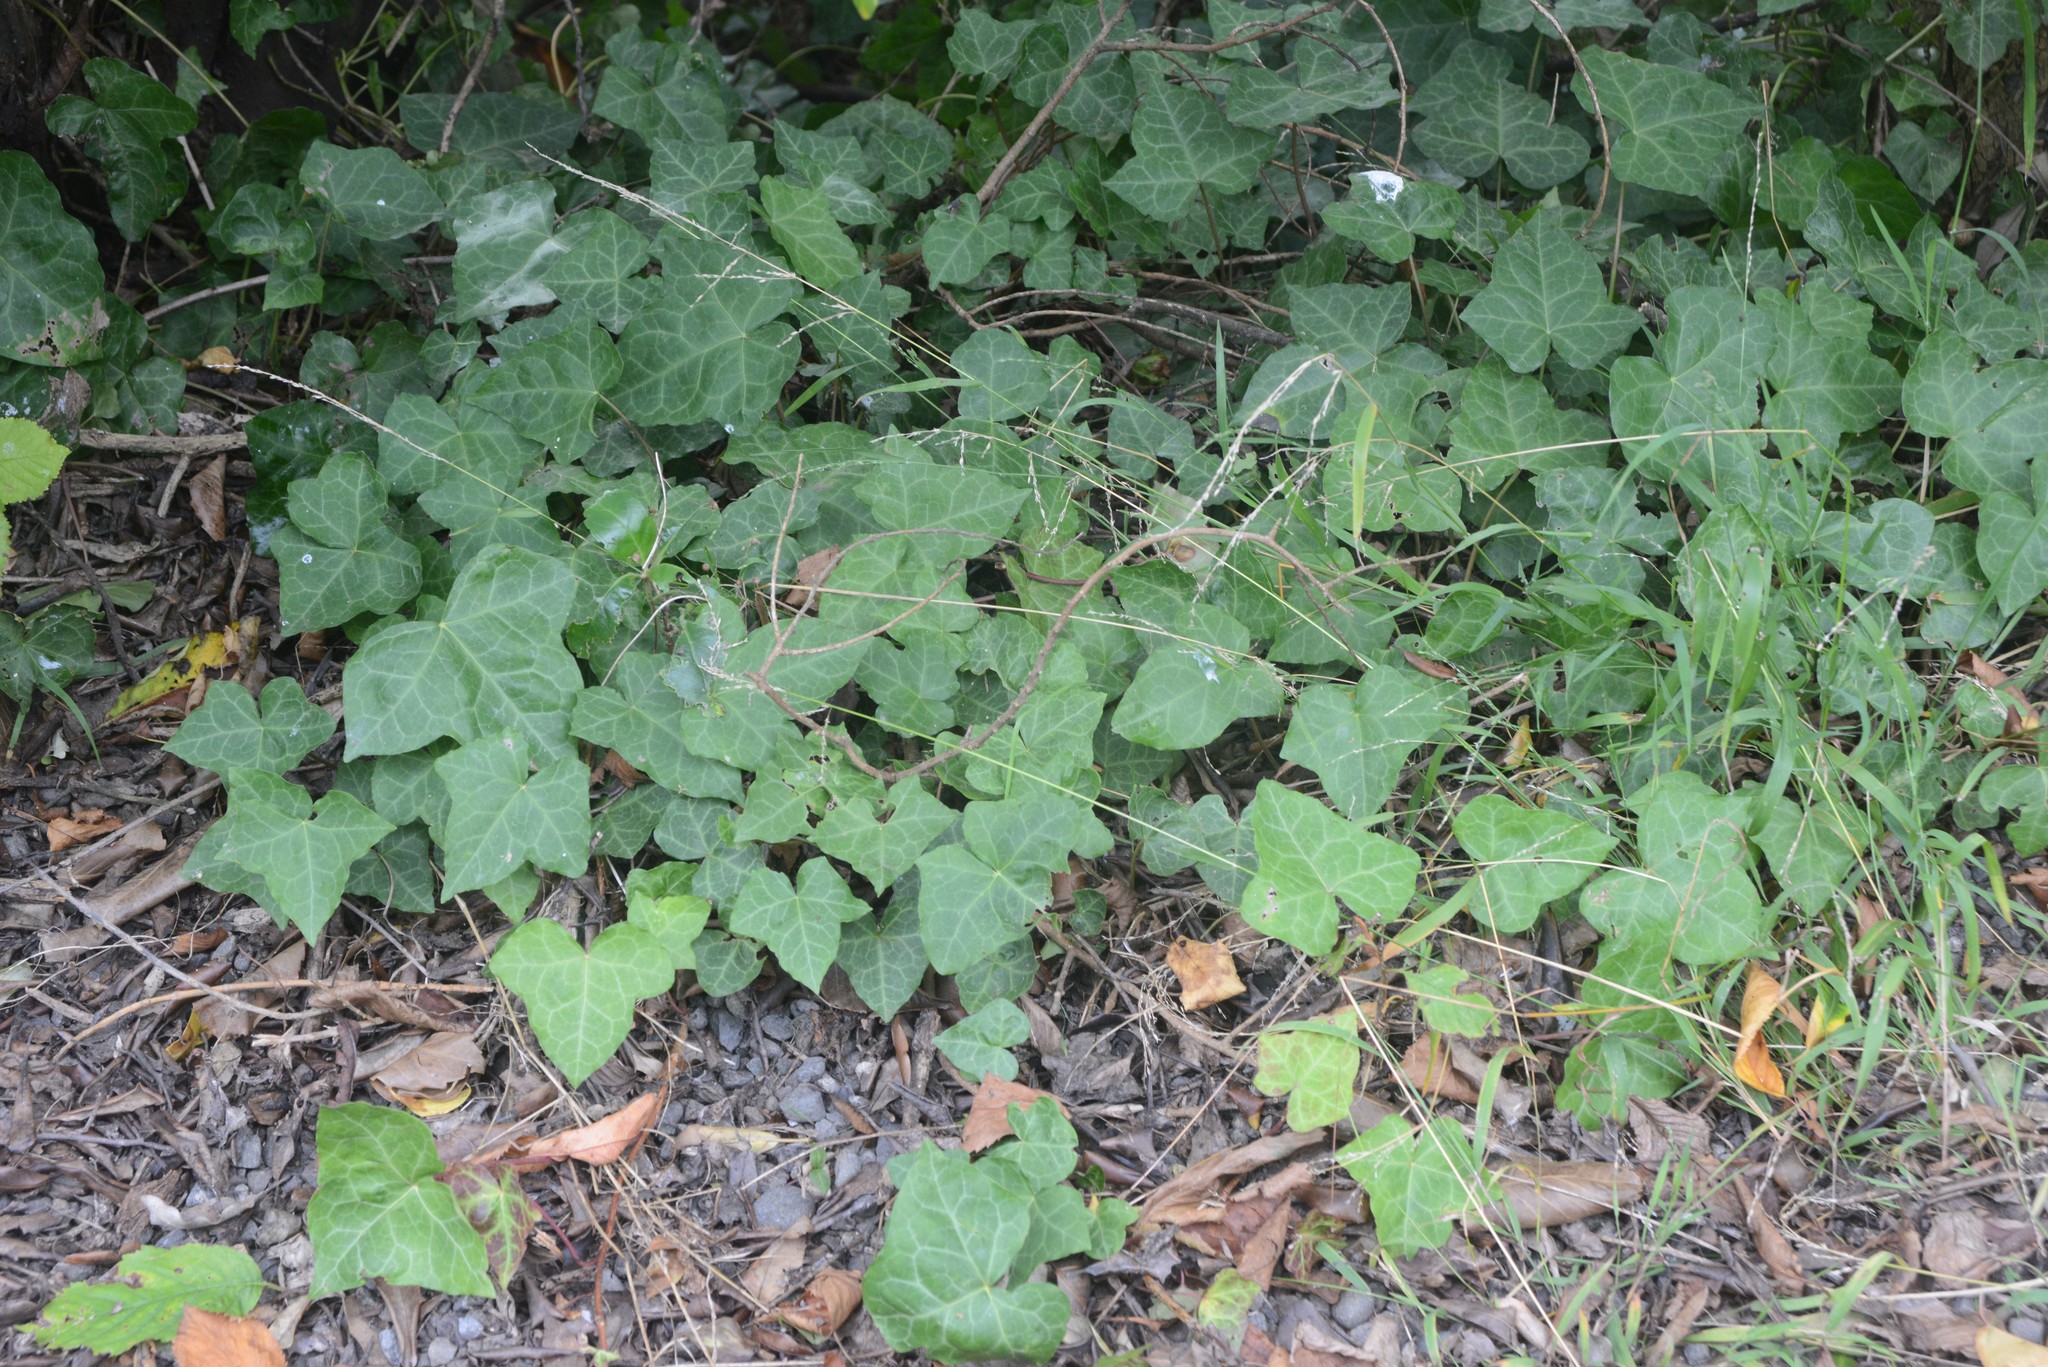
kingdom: Plantae
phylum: Tracheophyta
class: Magnoliopsida
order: Apiales
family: Araliaceae
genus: Hedera
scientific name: Hedera helix
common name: Ivy
